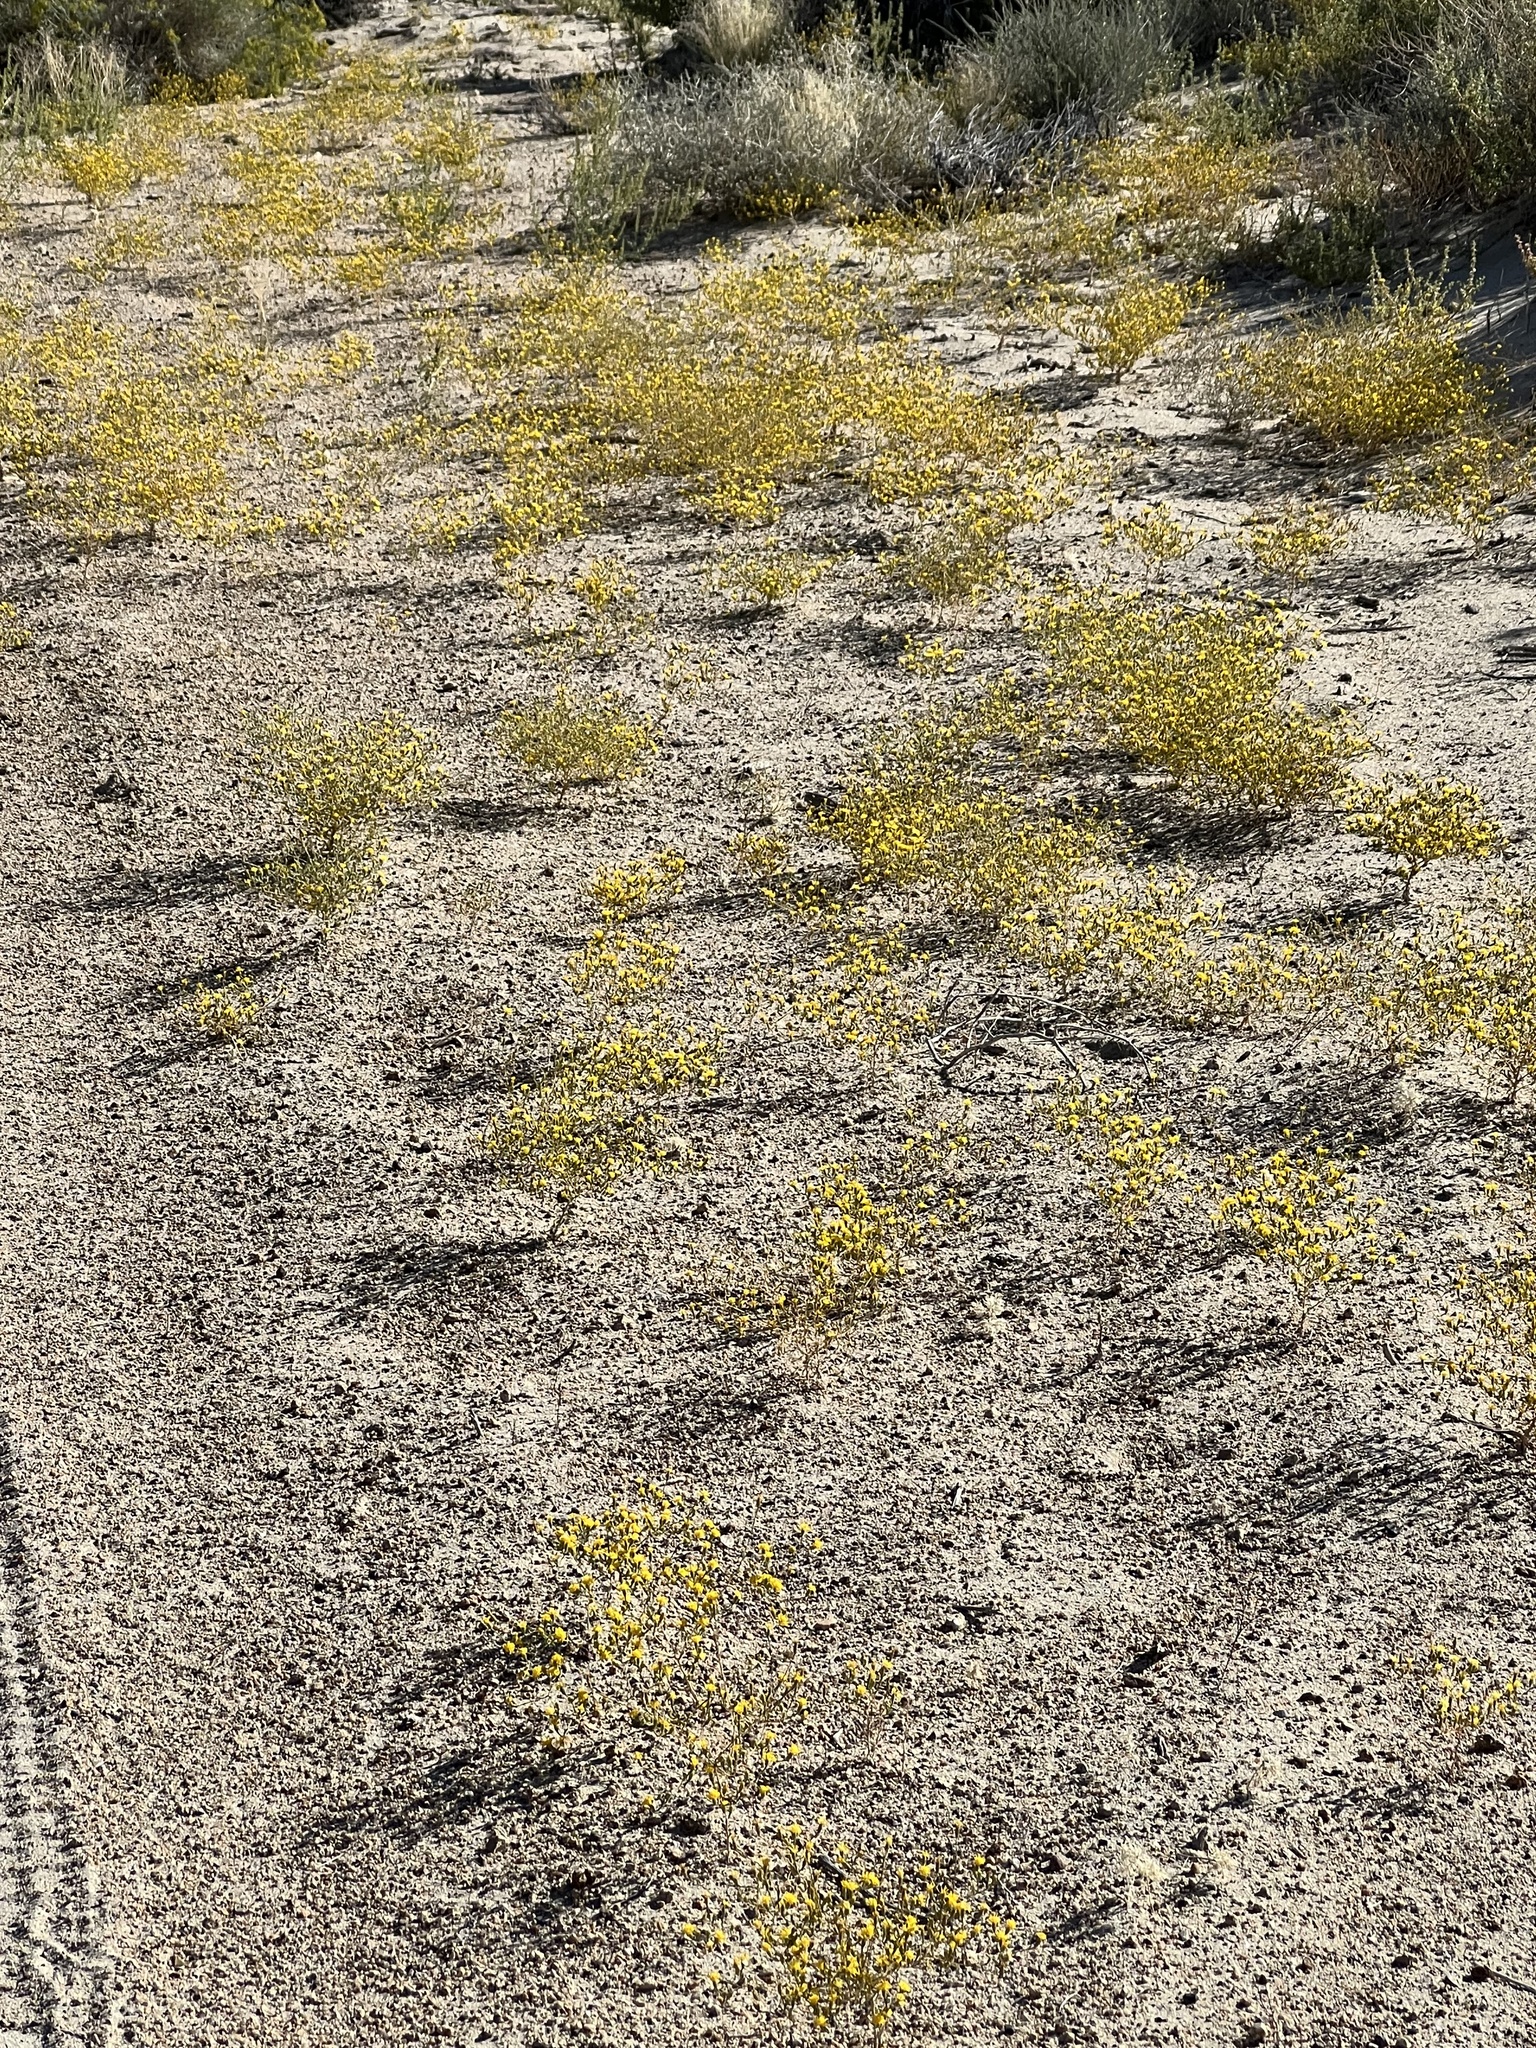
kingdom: Plantae
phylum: Tracheophyta
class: Magnoliopsida
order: Asterales
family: Asteraceae
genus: Lessingia
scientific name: Lessingia glandulifera
